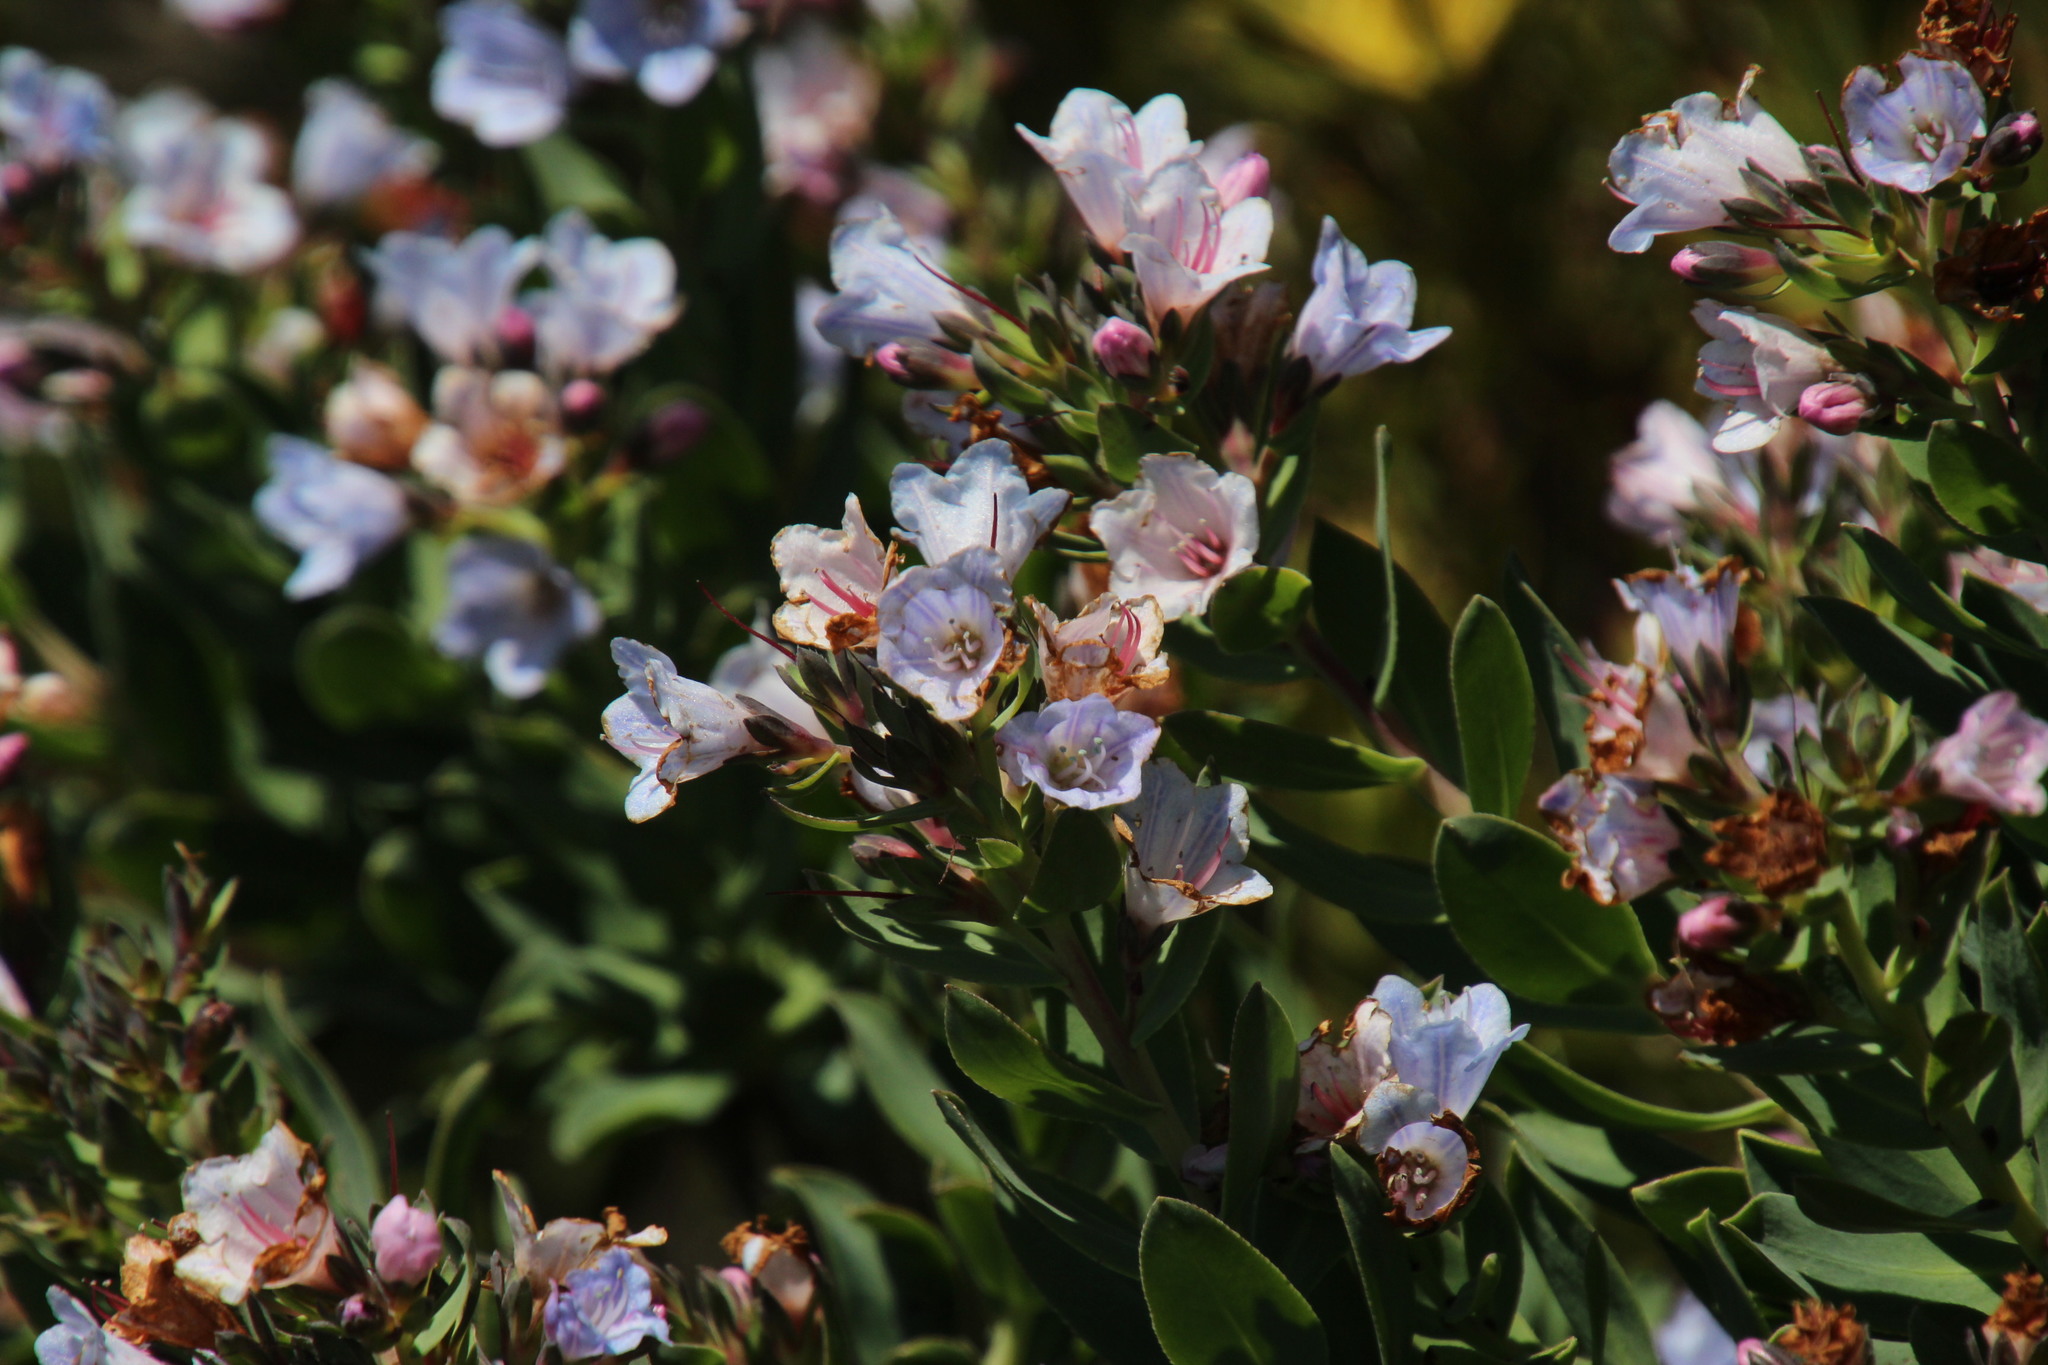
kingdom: Plantae
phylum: Tracheophyta
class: Magnoliopsida
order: Boraginales
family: Boraginaceae
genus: Lobostemon
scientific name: Lobostemon glaucophyllus
